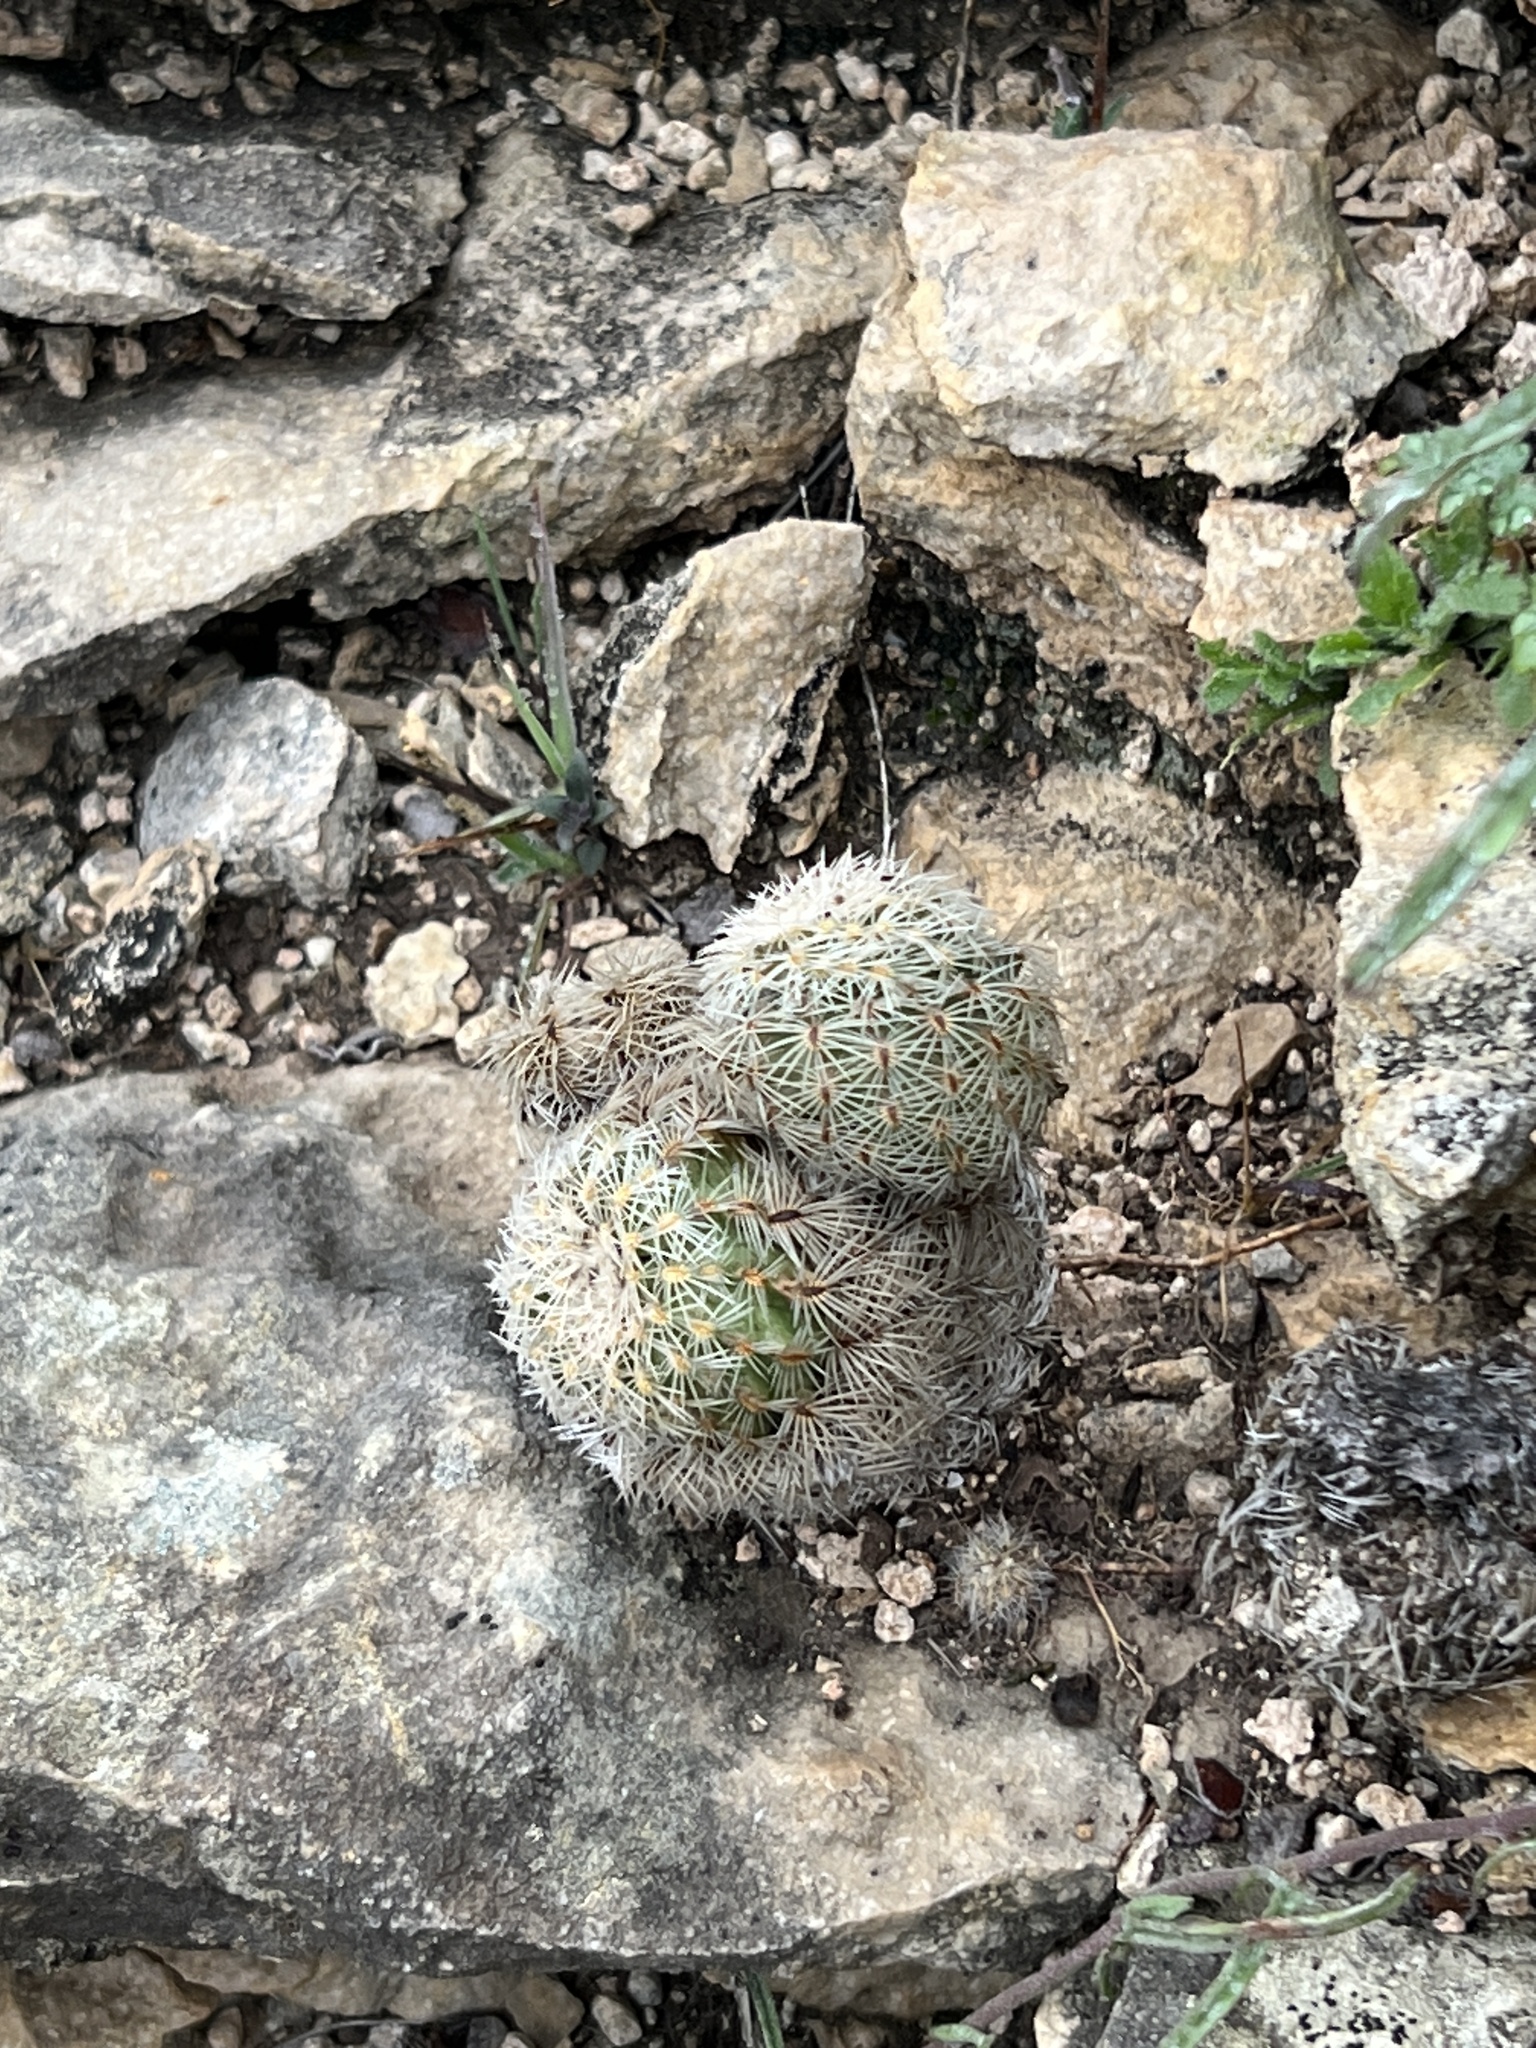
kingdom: Plantae
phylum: Tracheophyta
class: Magnoliopsida
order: Caryophyllales
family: Cactaceae
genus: Echinocereus
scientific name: Echinocereus reichenbachii
